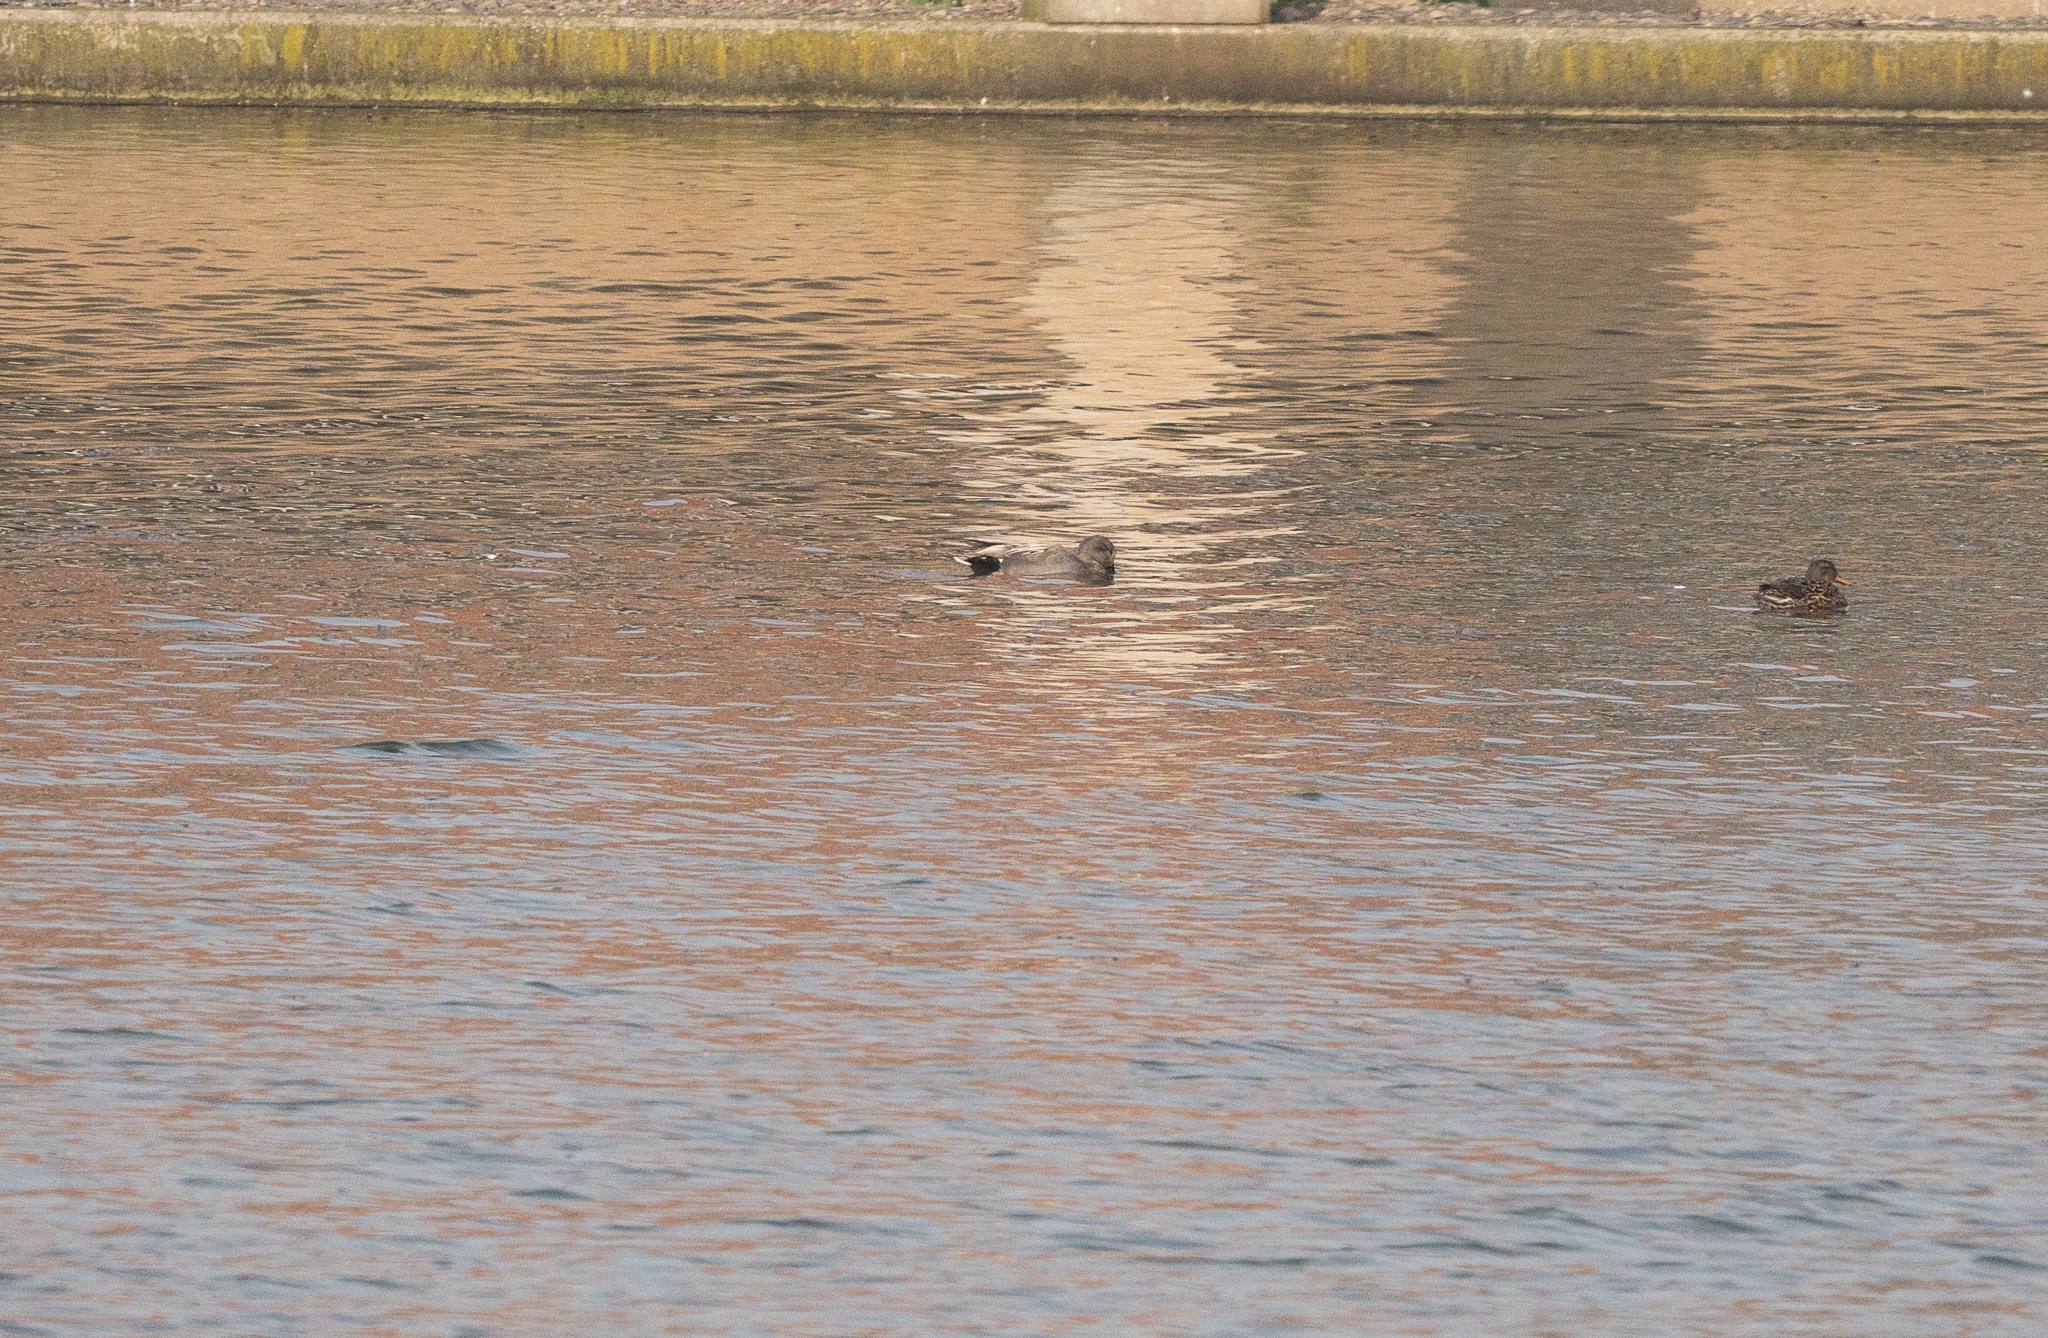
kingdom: Animalia
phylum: Chordata
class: Aves
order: Anseriformes
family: Anatidae
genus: Mareca
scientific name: Mareca strepera
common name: Gadwall
